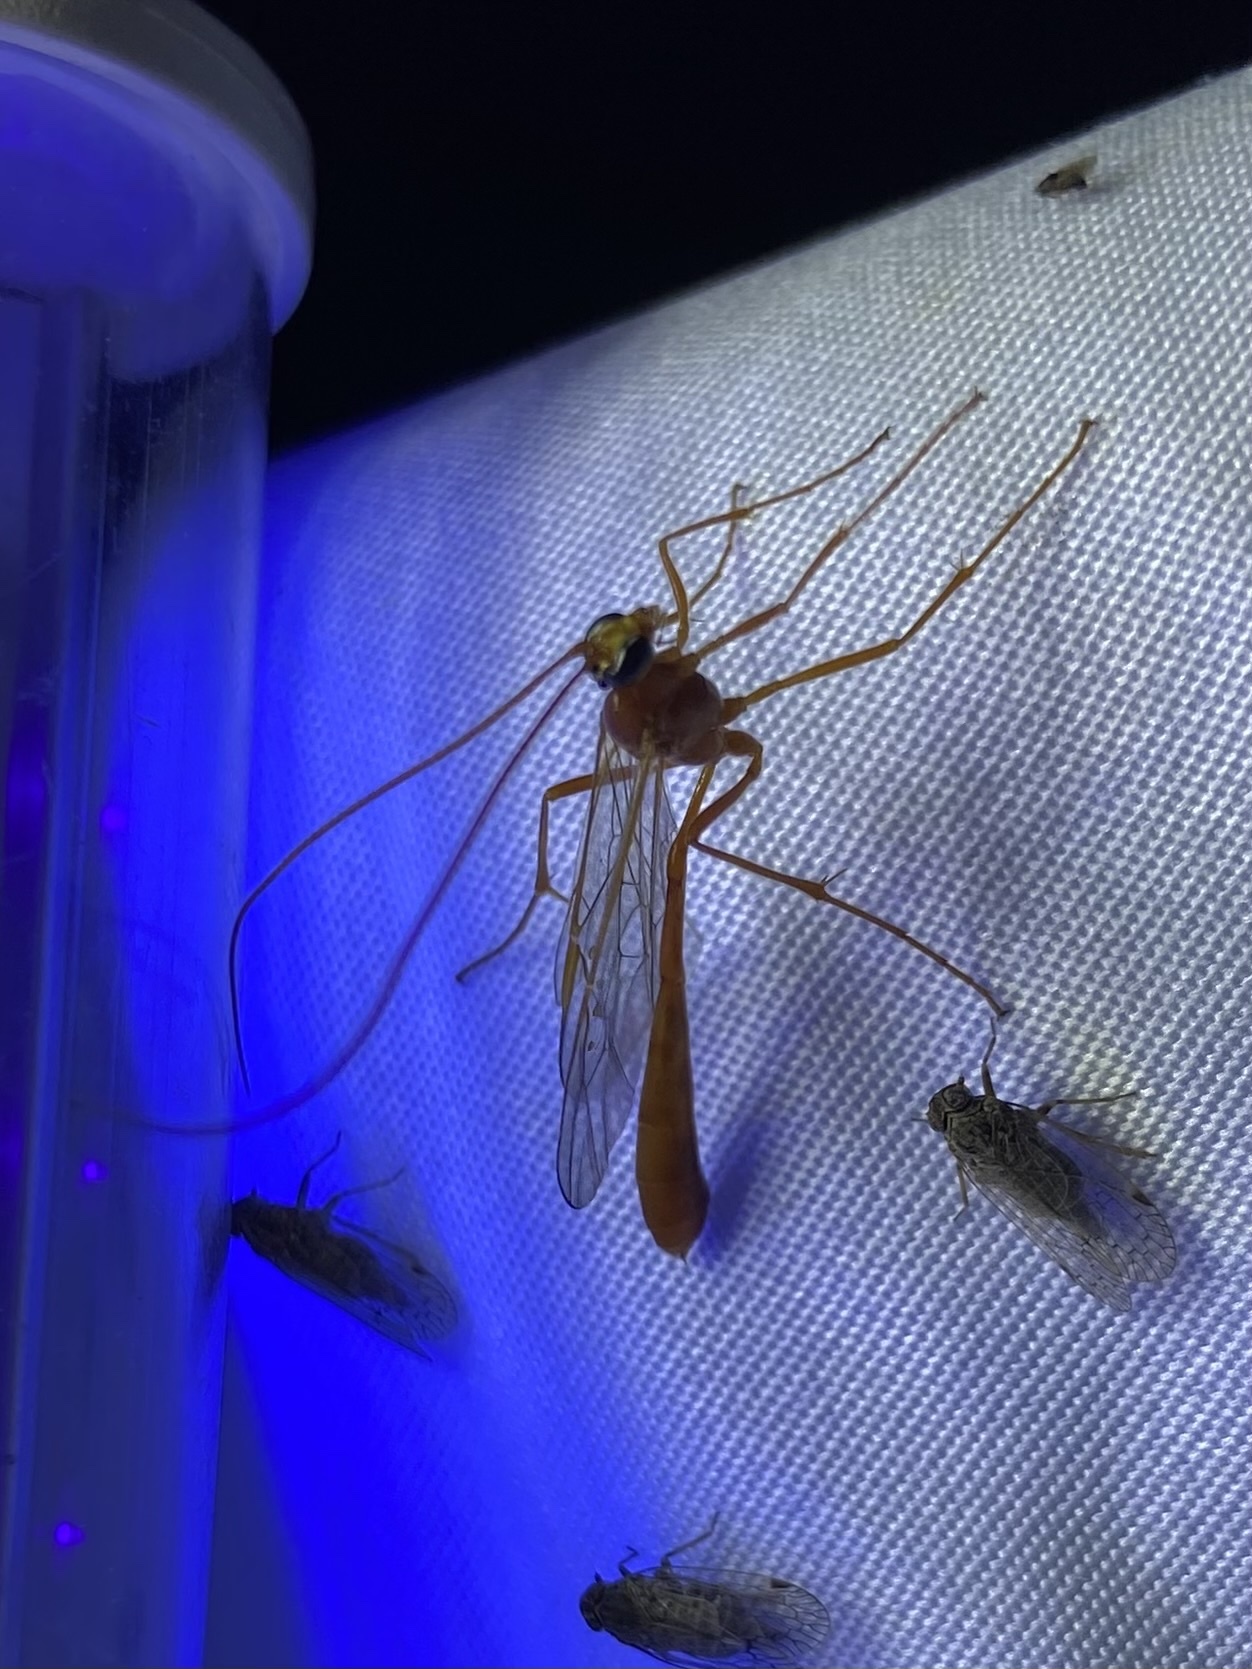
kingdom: Animalia
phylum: Arthropoda
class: Insecta
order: Hymenoptera
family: Ichneumonidae
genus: Enicospilus
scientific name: Enicospilus purgatus
